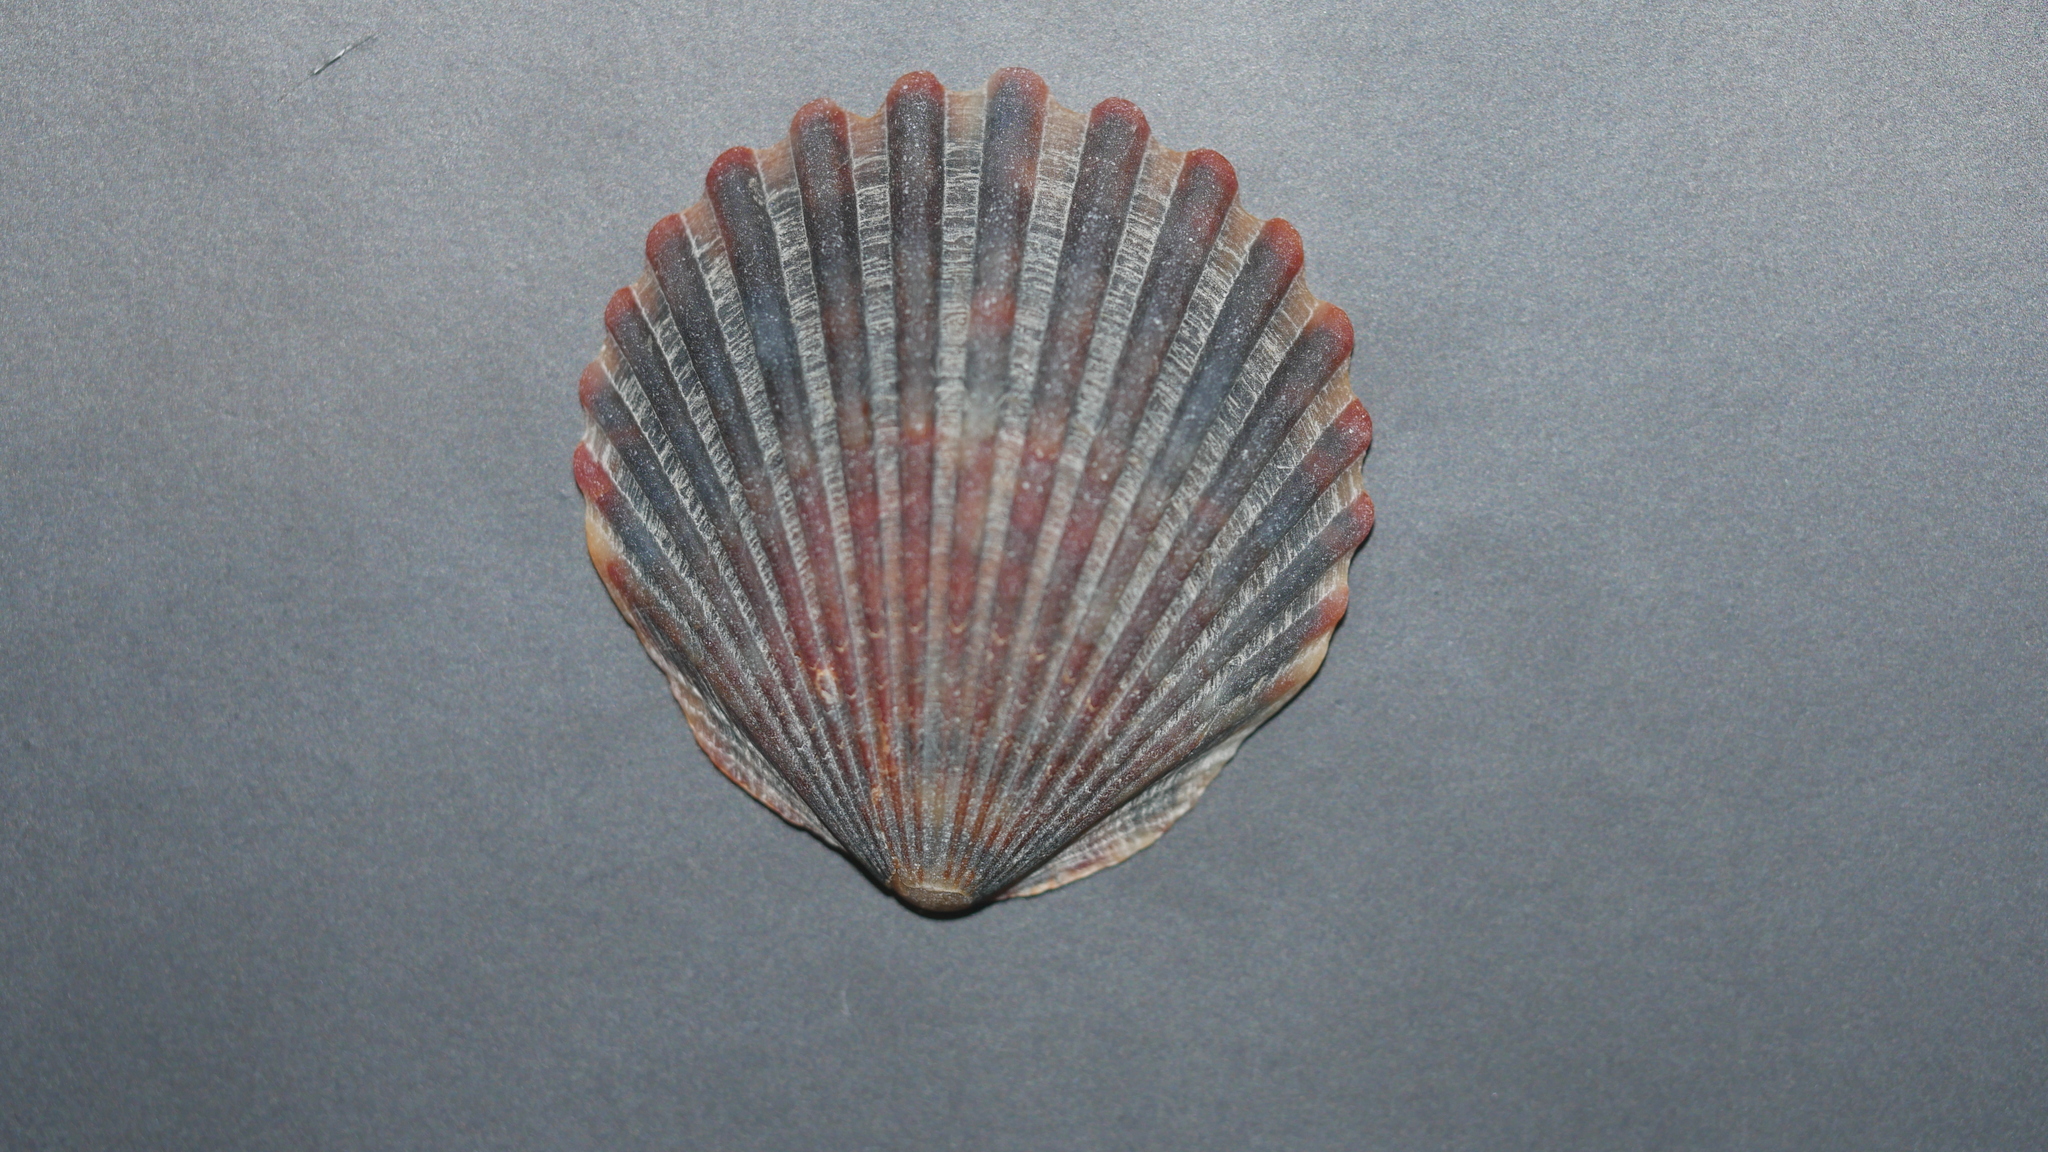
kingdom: Animalia
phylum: Mollusca
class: Bivalvia
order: Pectinida
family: Pectinidae
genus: Argopecten
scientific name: Argopecten irradians
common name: Atlantic bay scallop
